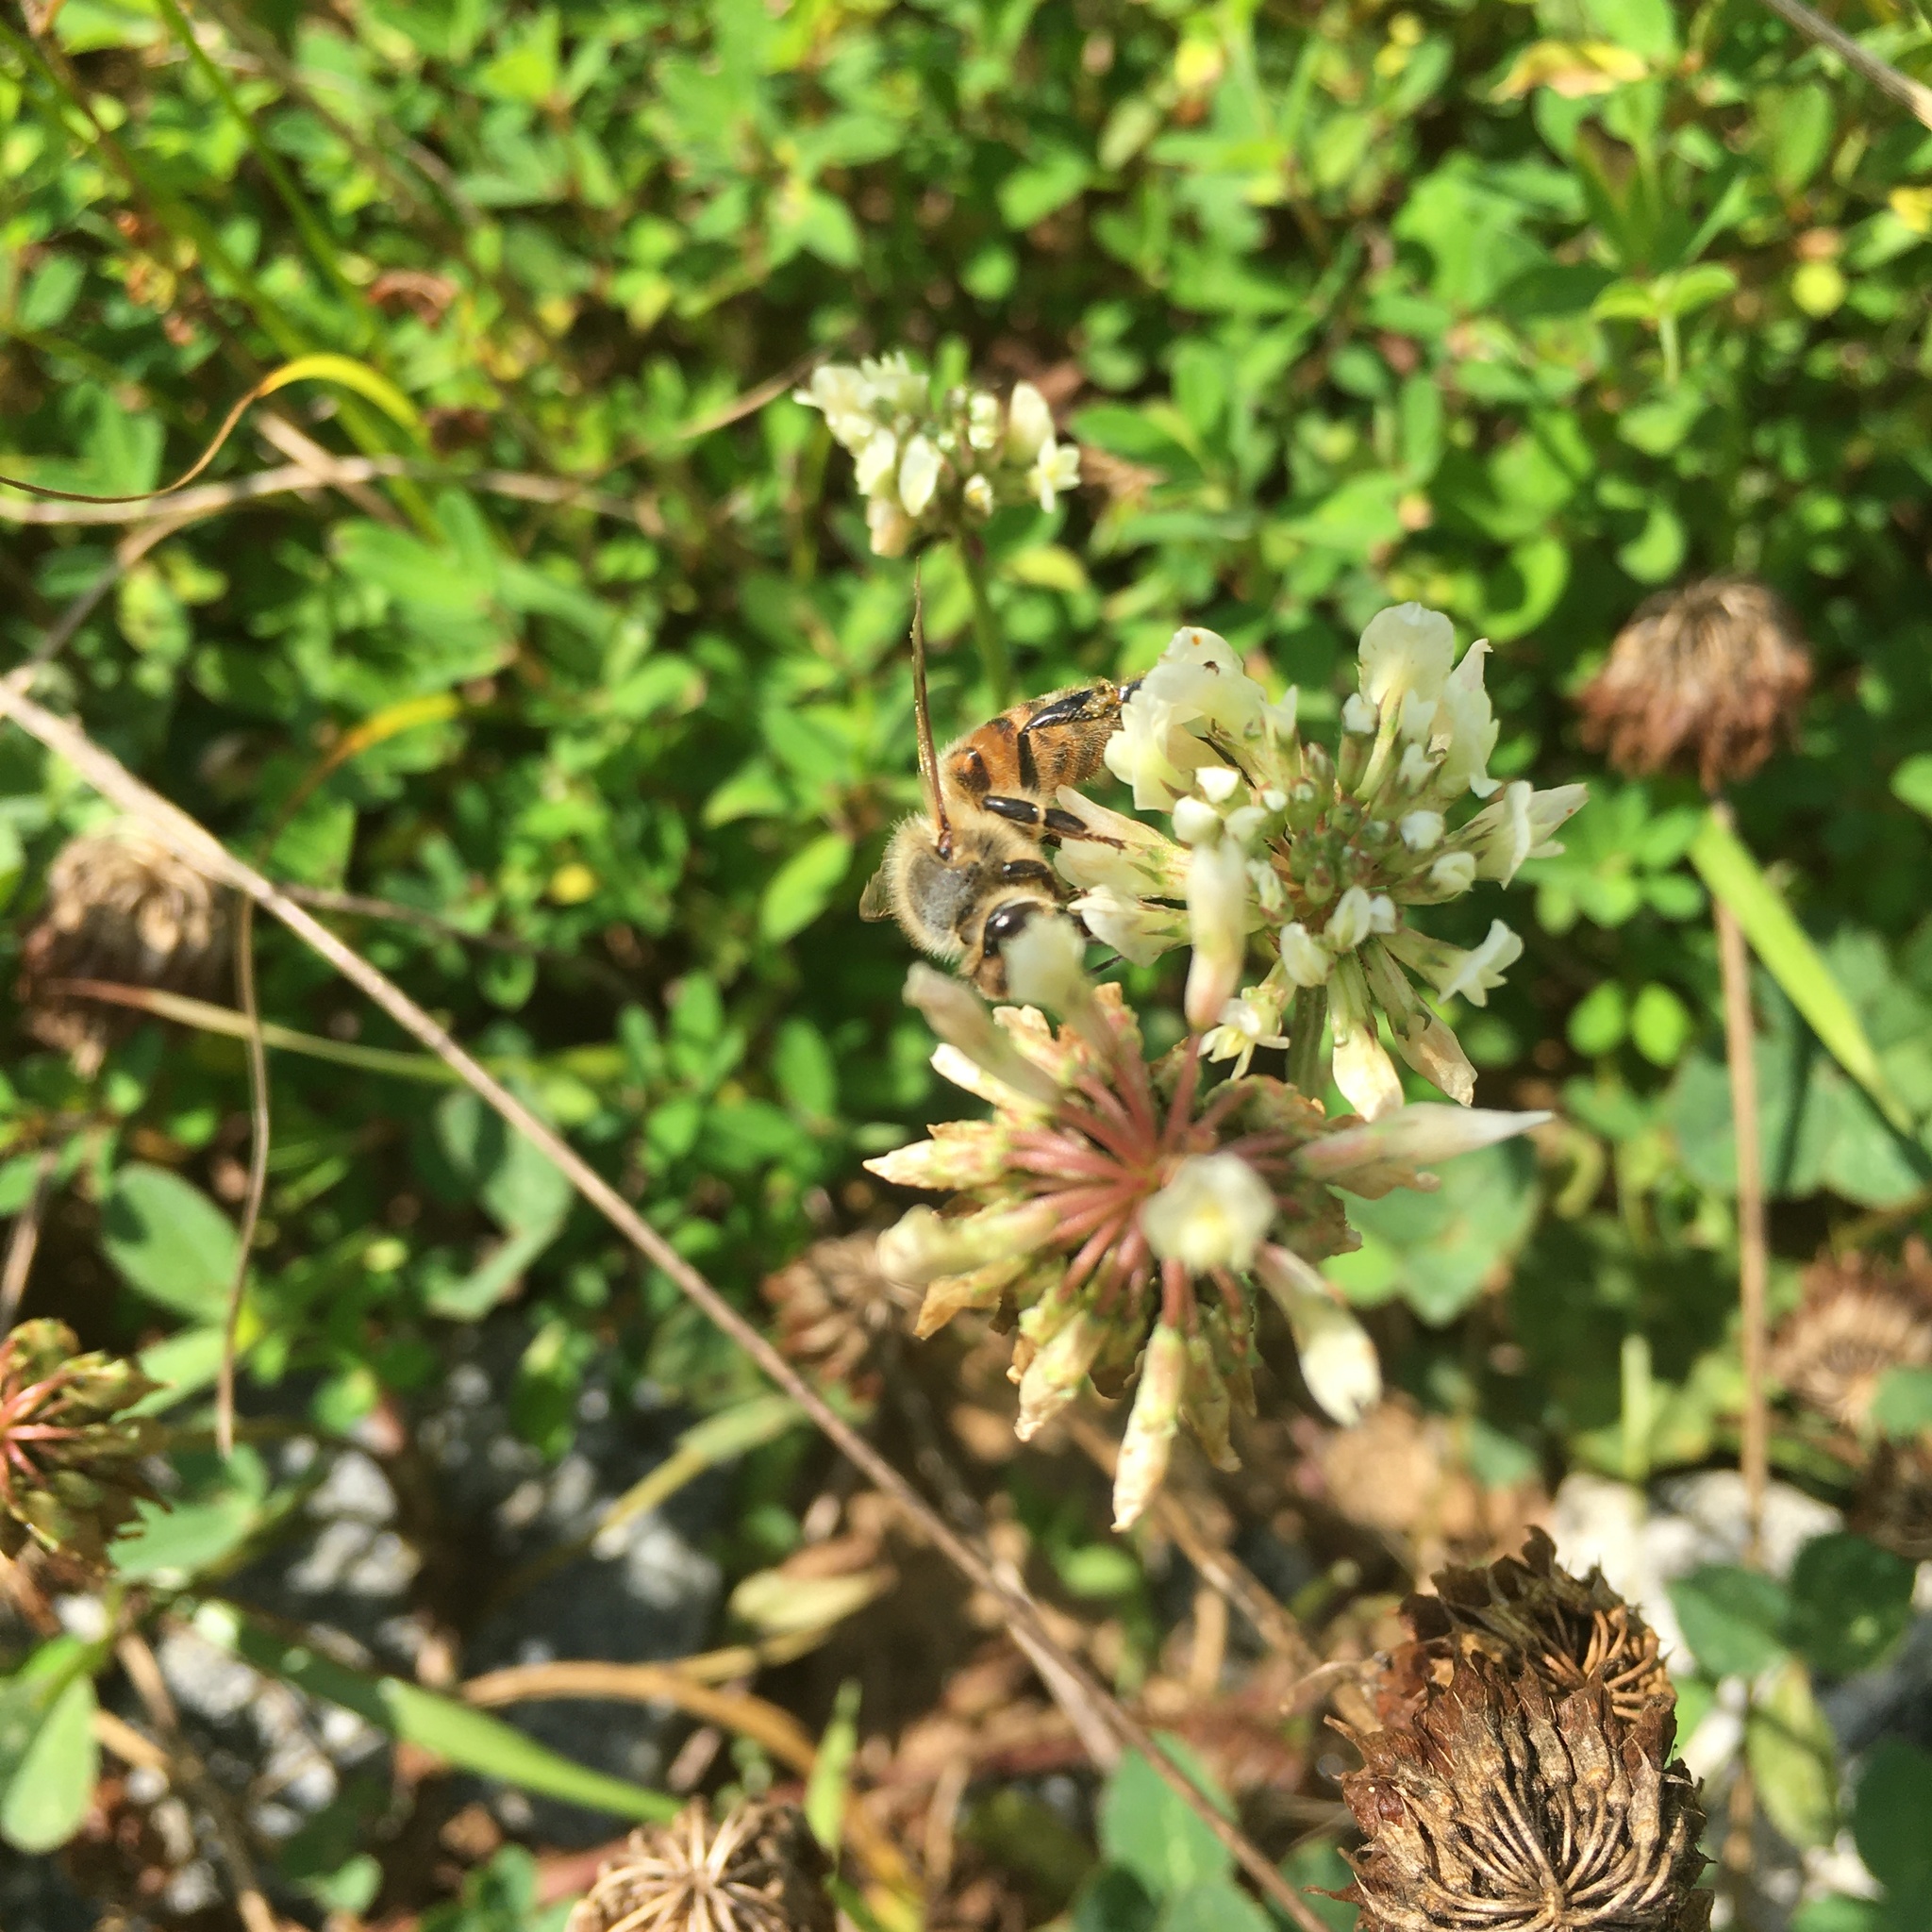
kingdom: Animalia
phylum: Arthropoda
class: Insecta
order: Hymenoptera
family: Apidae
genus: Apis
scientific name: Apis mellifera
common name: Honey bee
